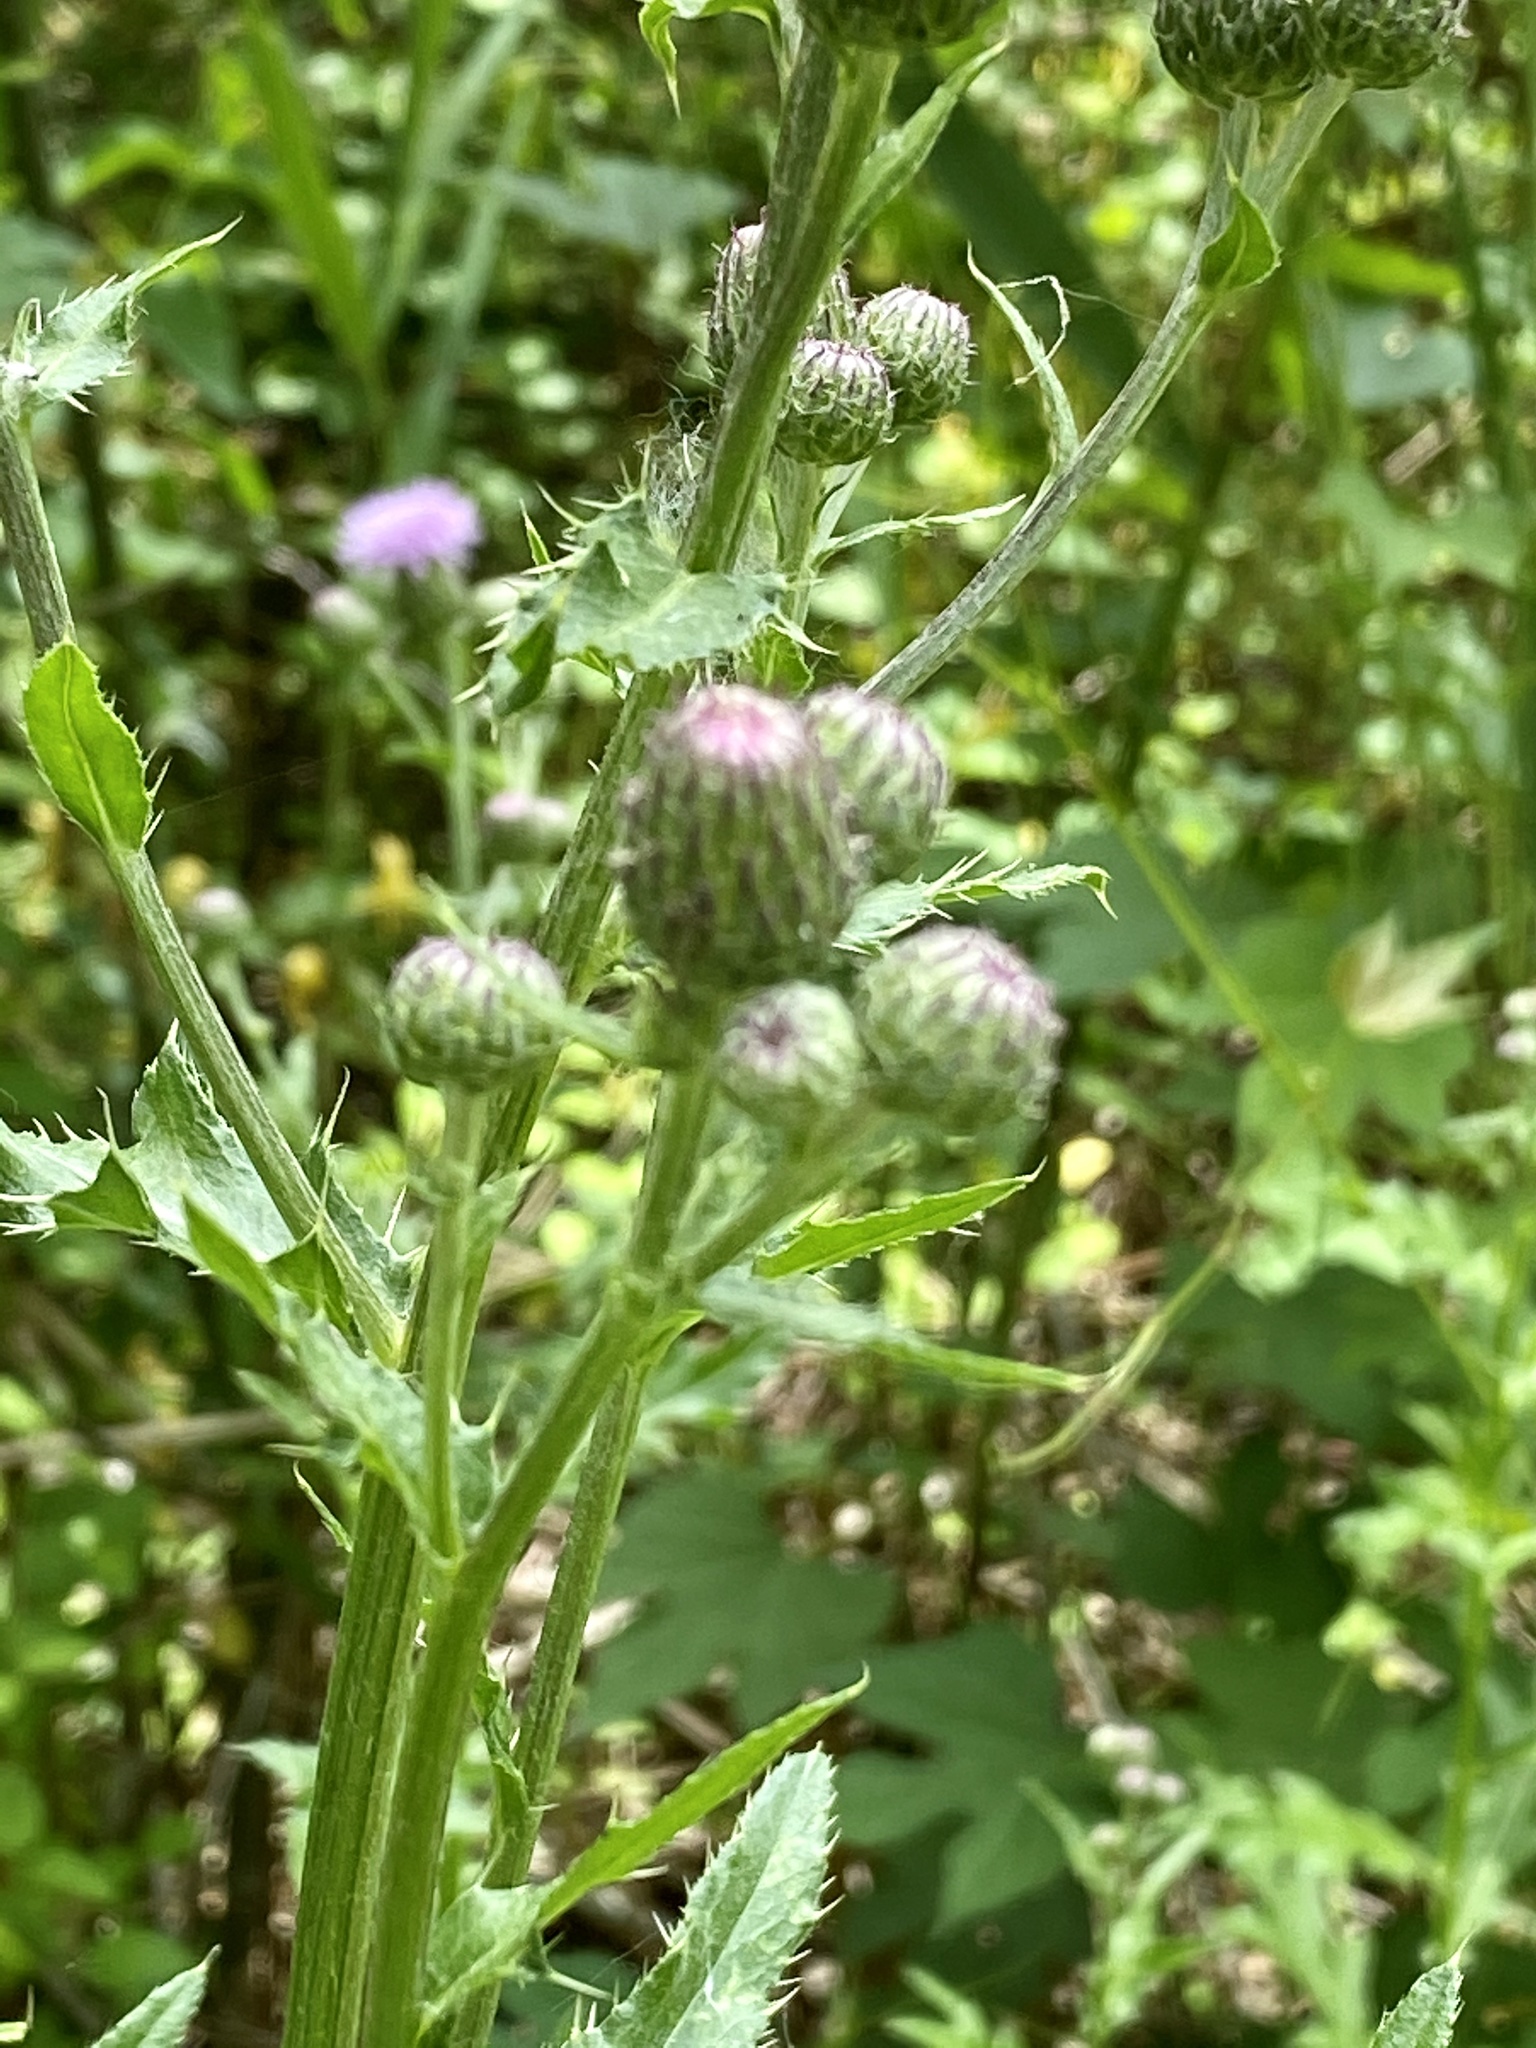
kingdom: Plantae
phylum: Tracheophyta
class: Magnoliopsida
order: Asterales
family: Asteraceae
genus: Cirsium
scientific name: Cirsium arvense
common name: Creeping thistle
